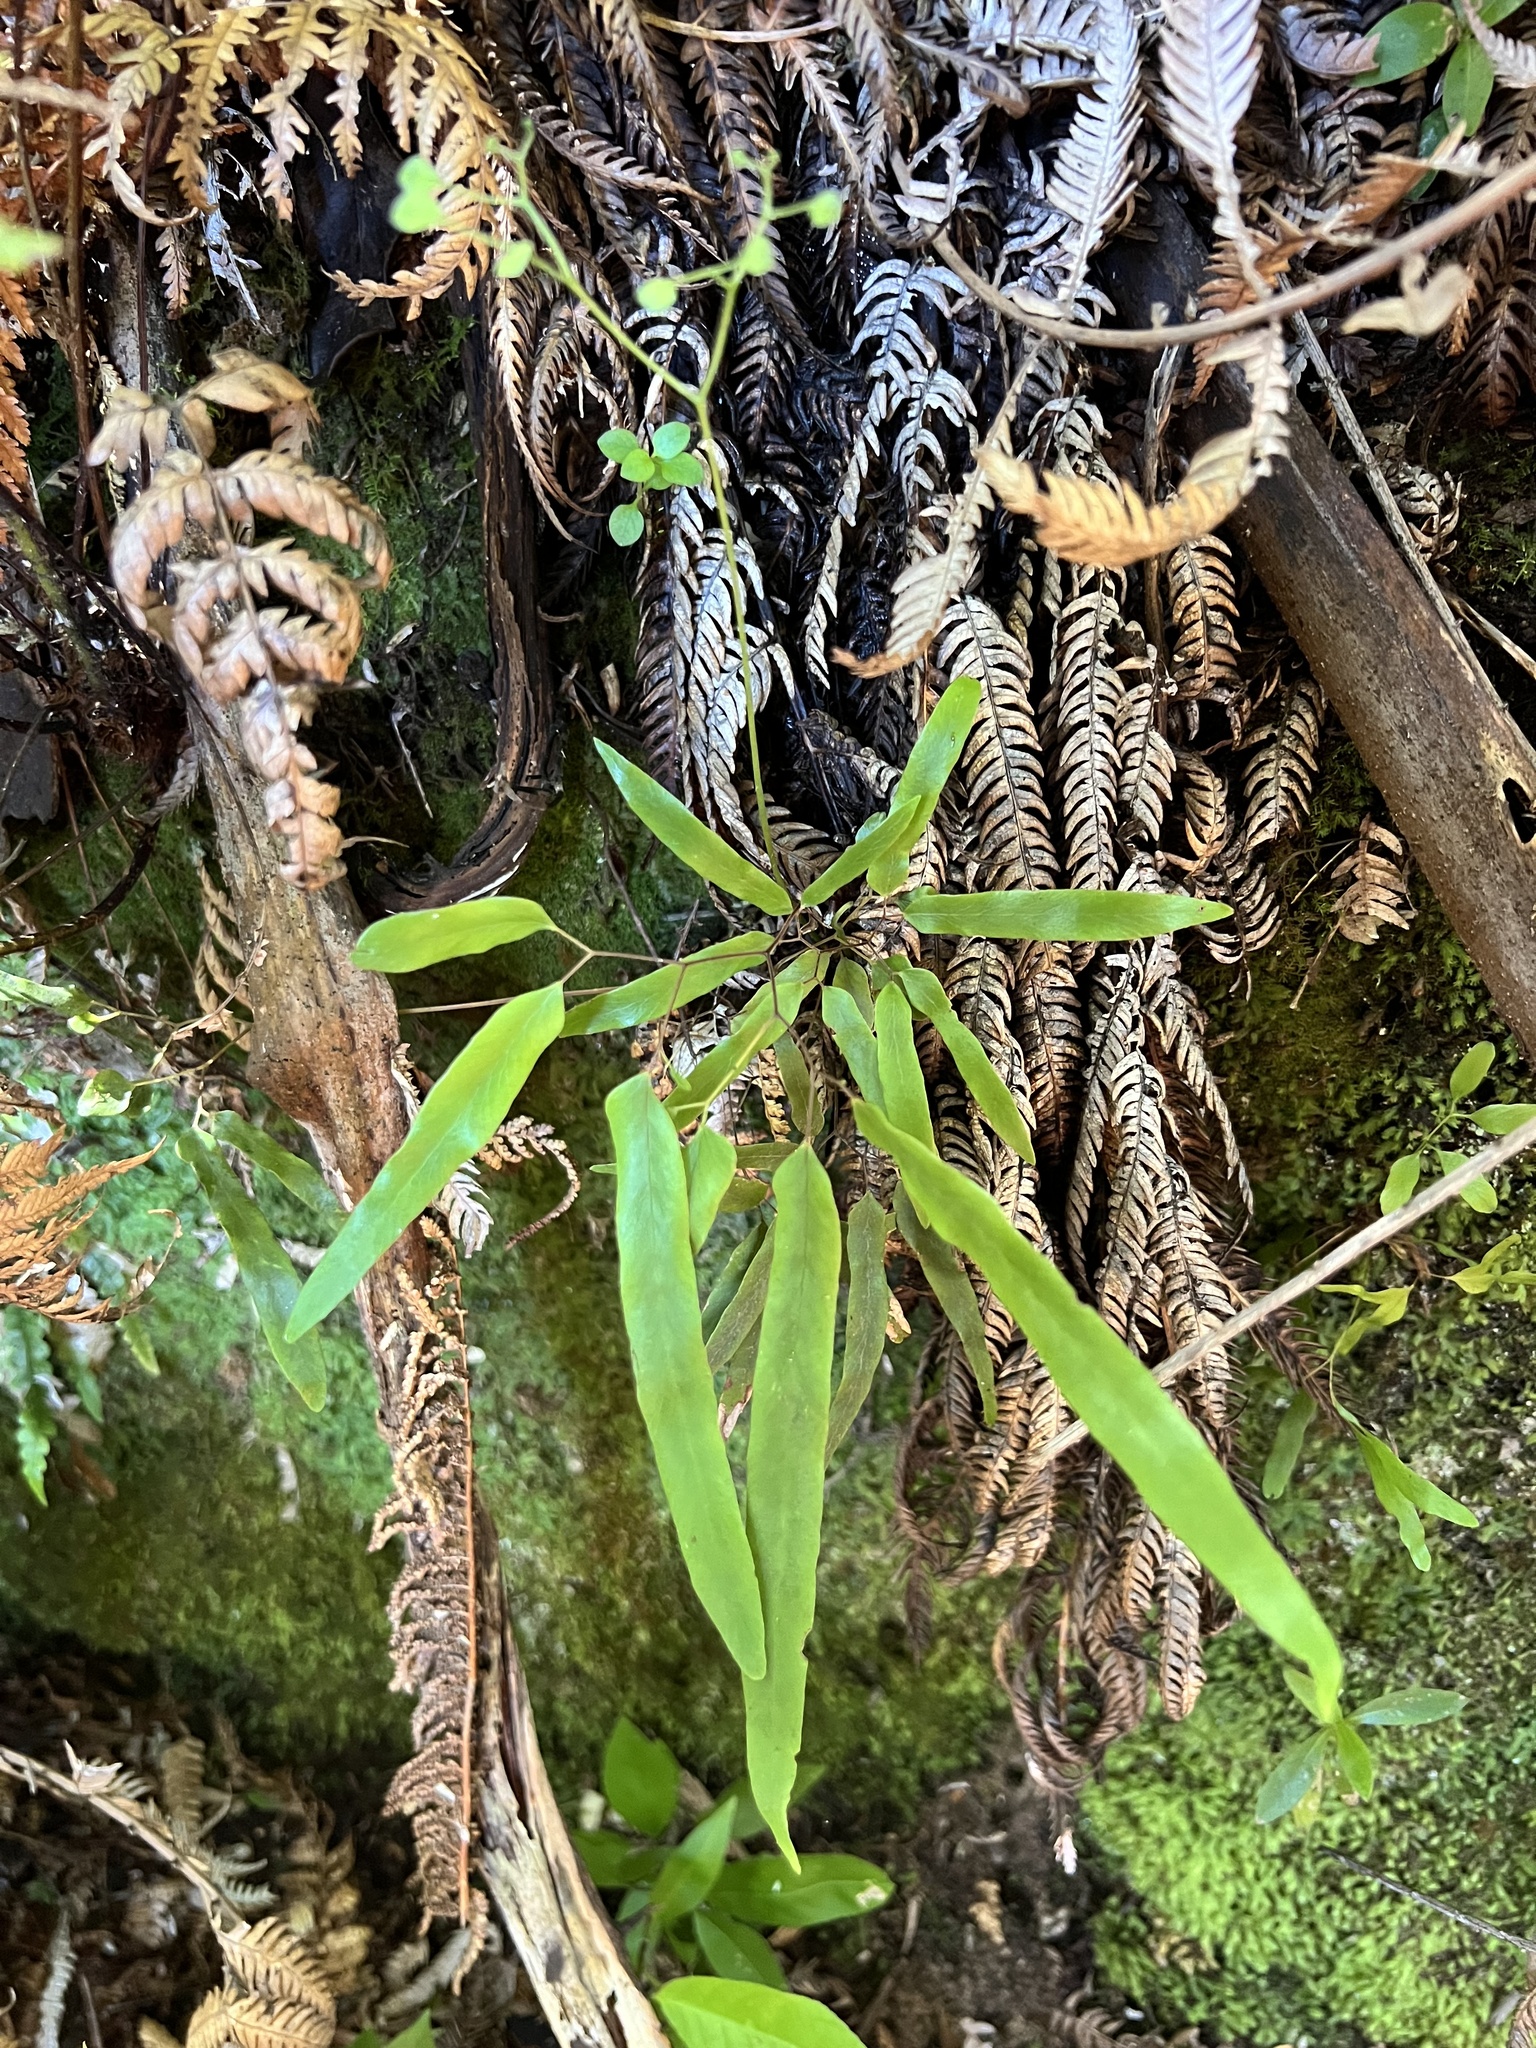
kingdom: Plantae
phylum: Tracheophyta
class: Polypodiopsida
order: Schizaeales
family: Lygodiaceae
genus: Lygodium
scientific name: Lygodium articulatum
